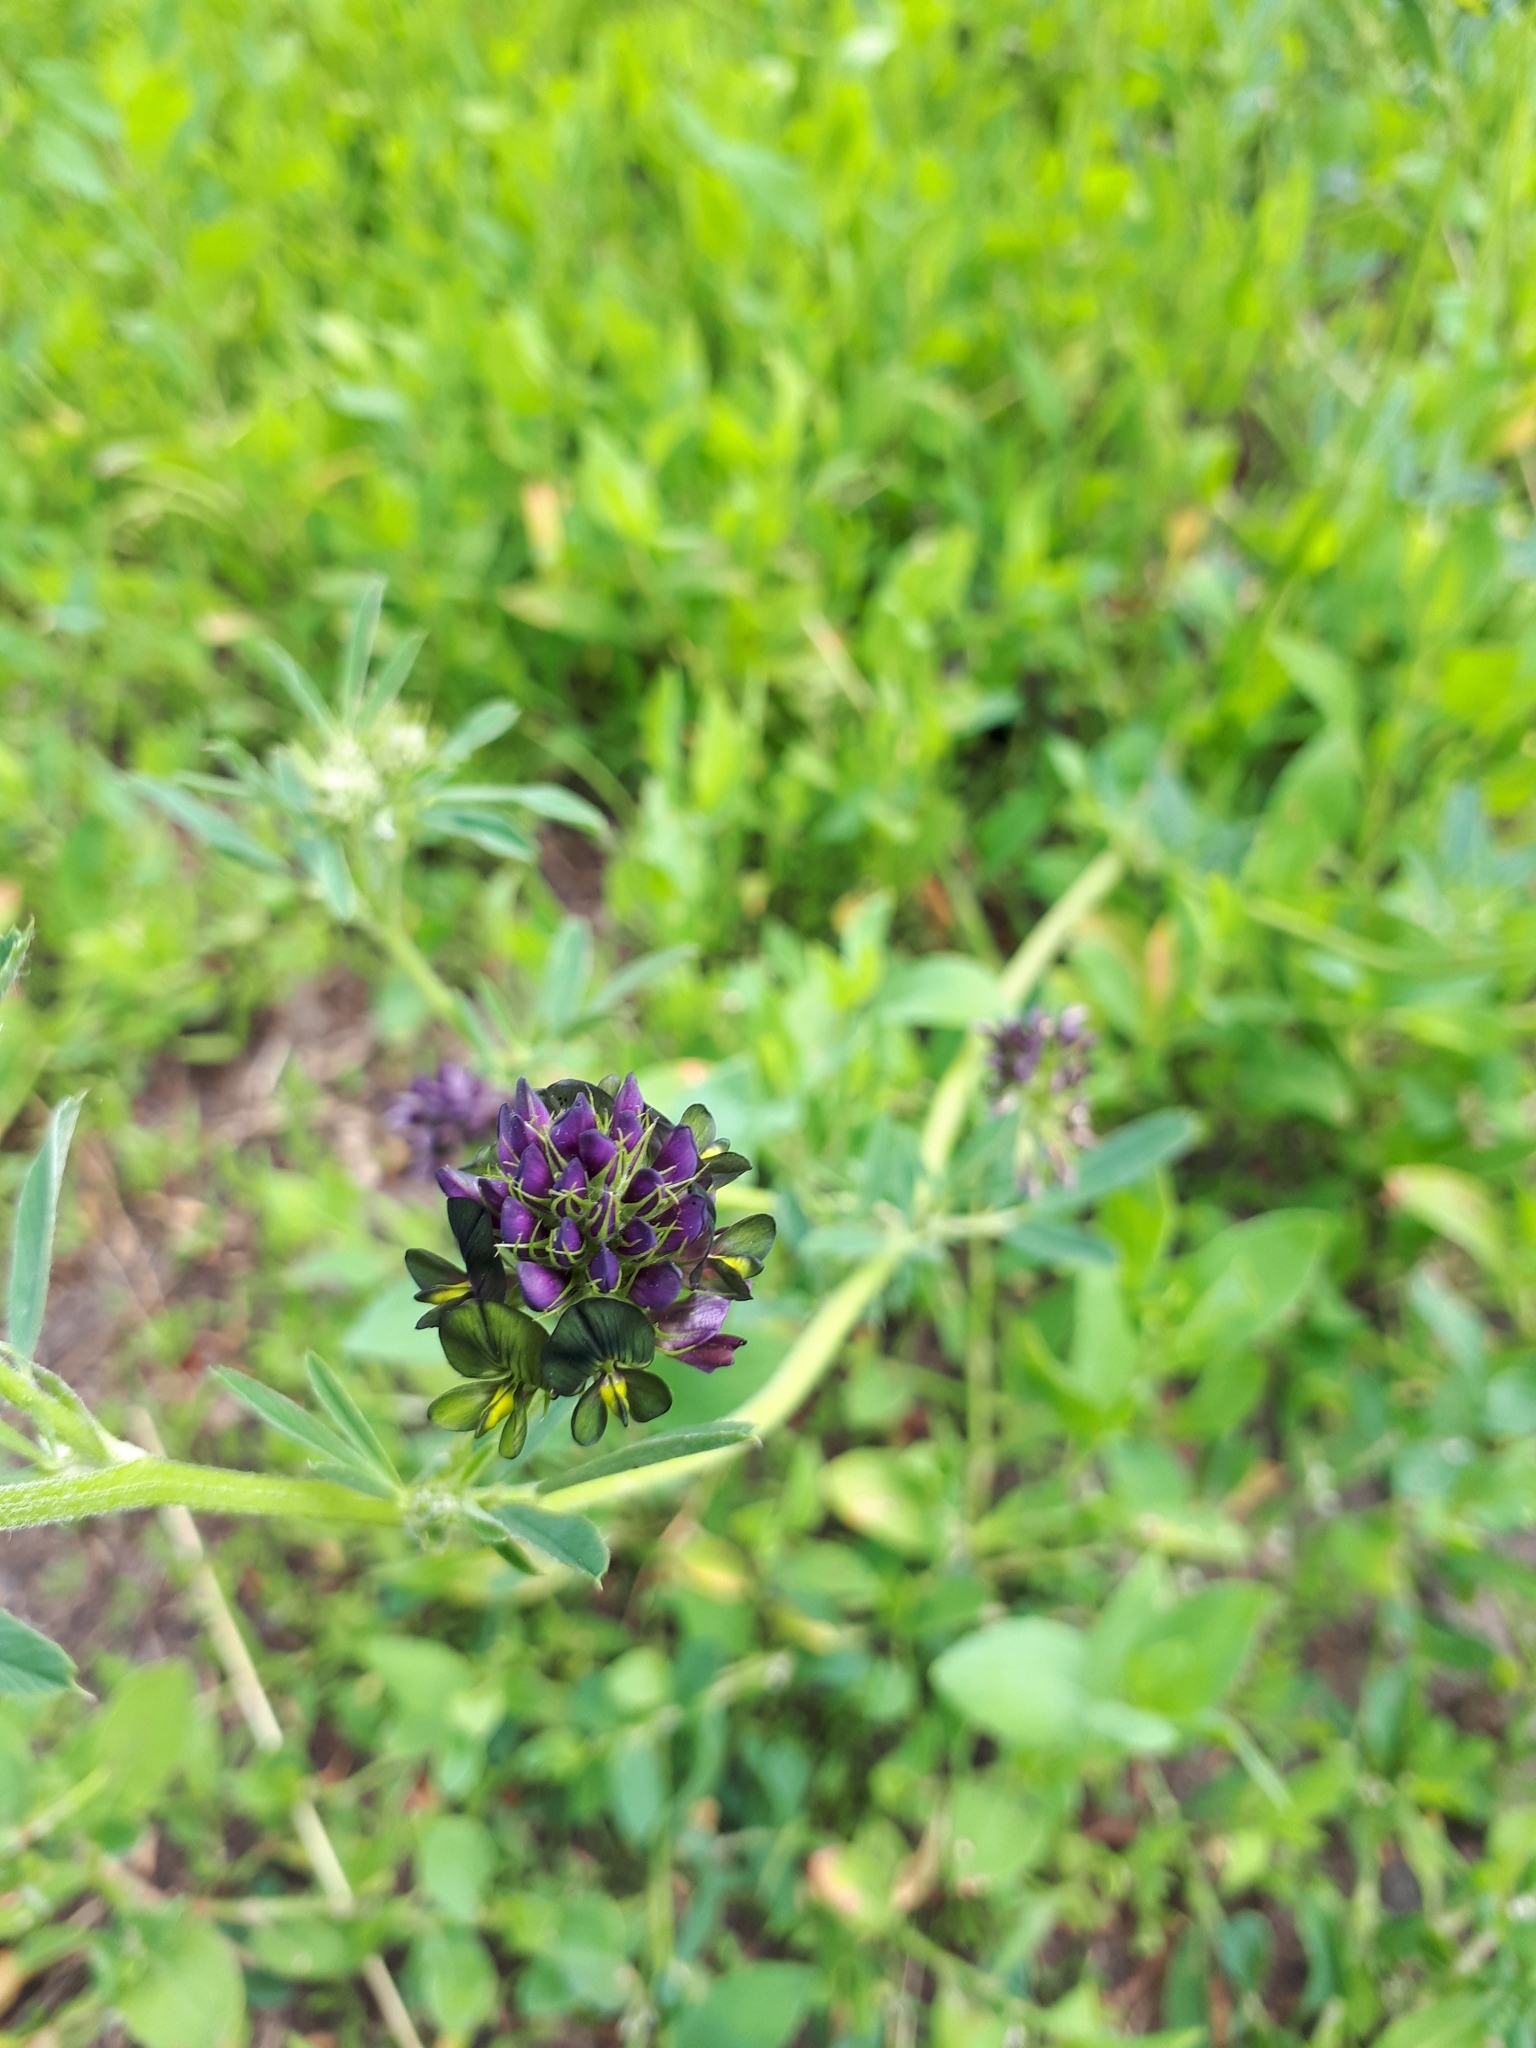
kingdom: Plantae
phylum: Tracheophyta
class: Magnoliopsida
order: Fabales
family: Fabaceae
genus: Medicago
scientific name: Medicago varia
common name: Sand lucerne
